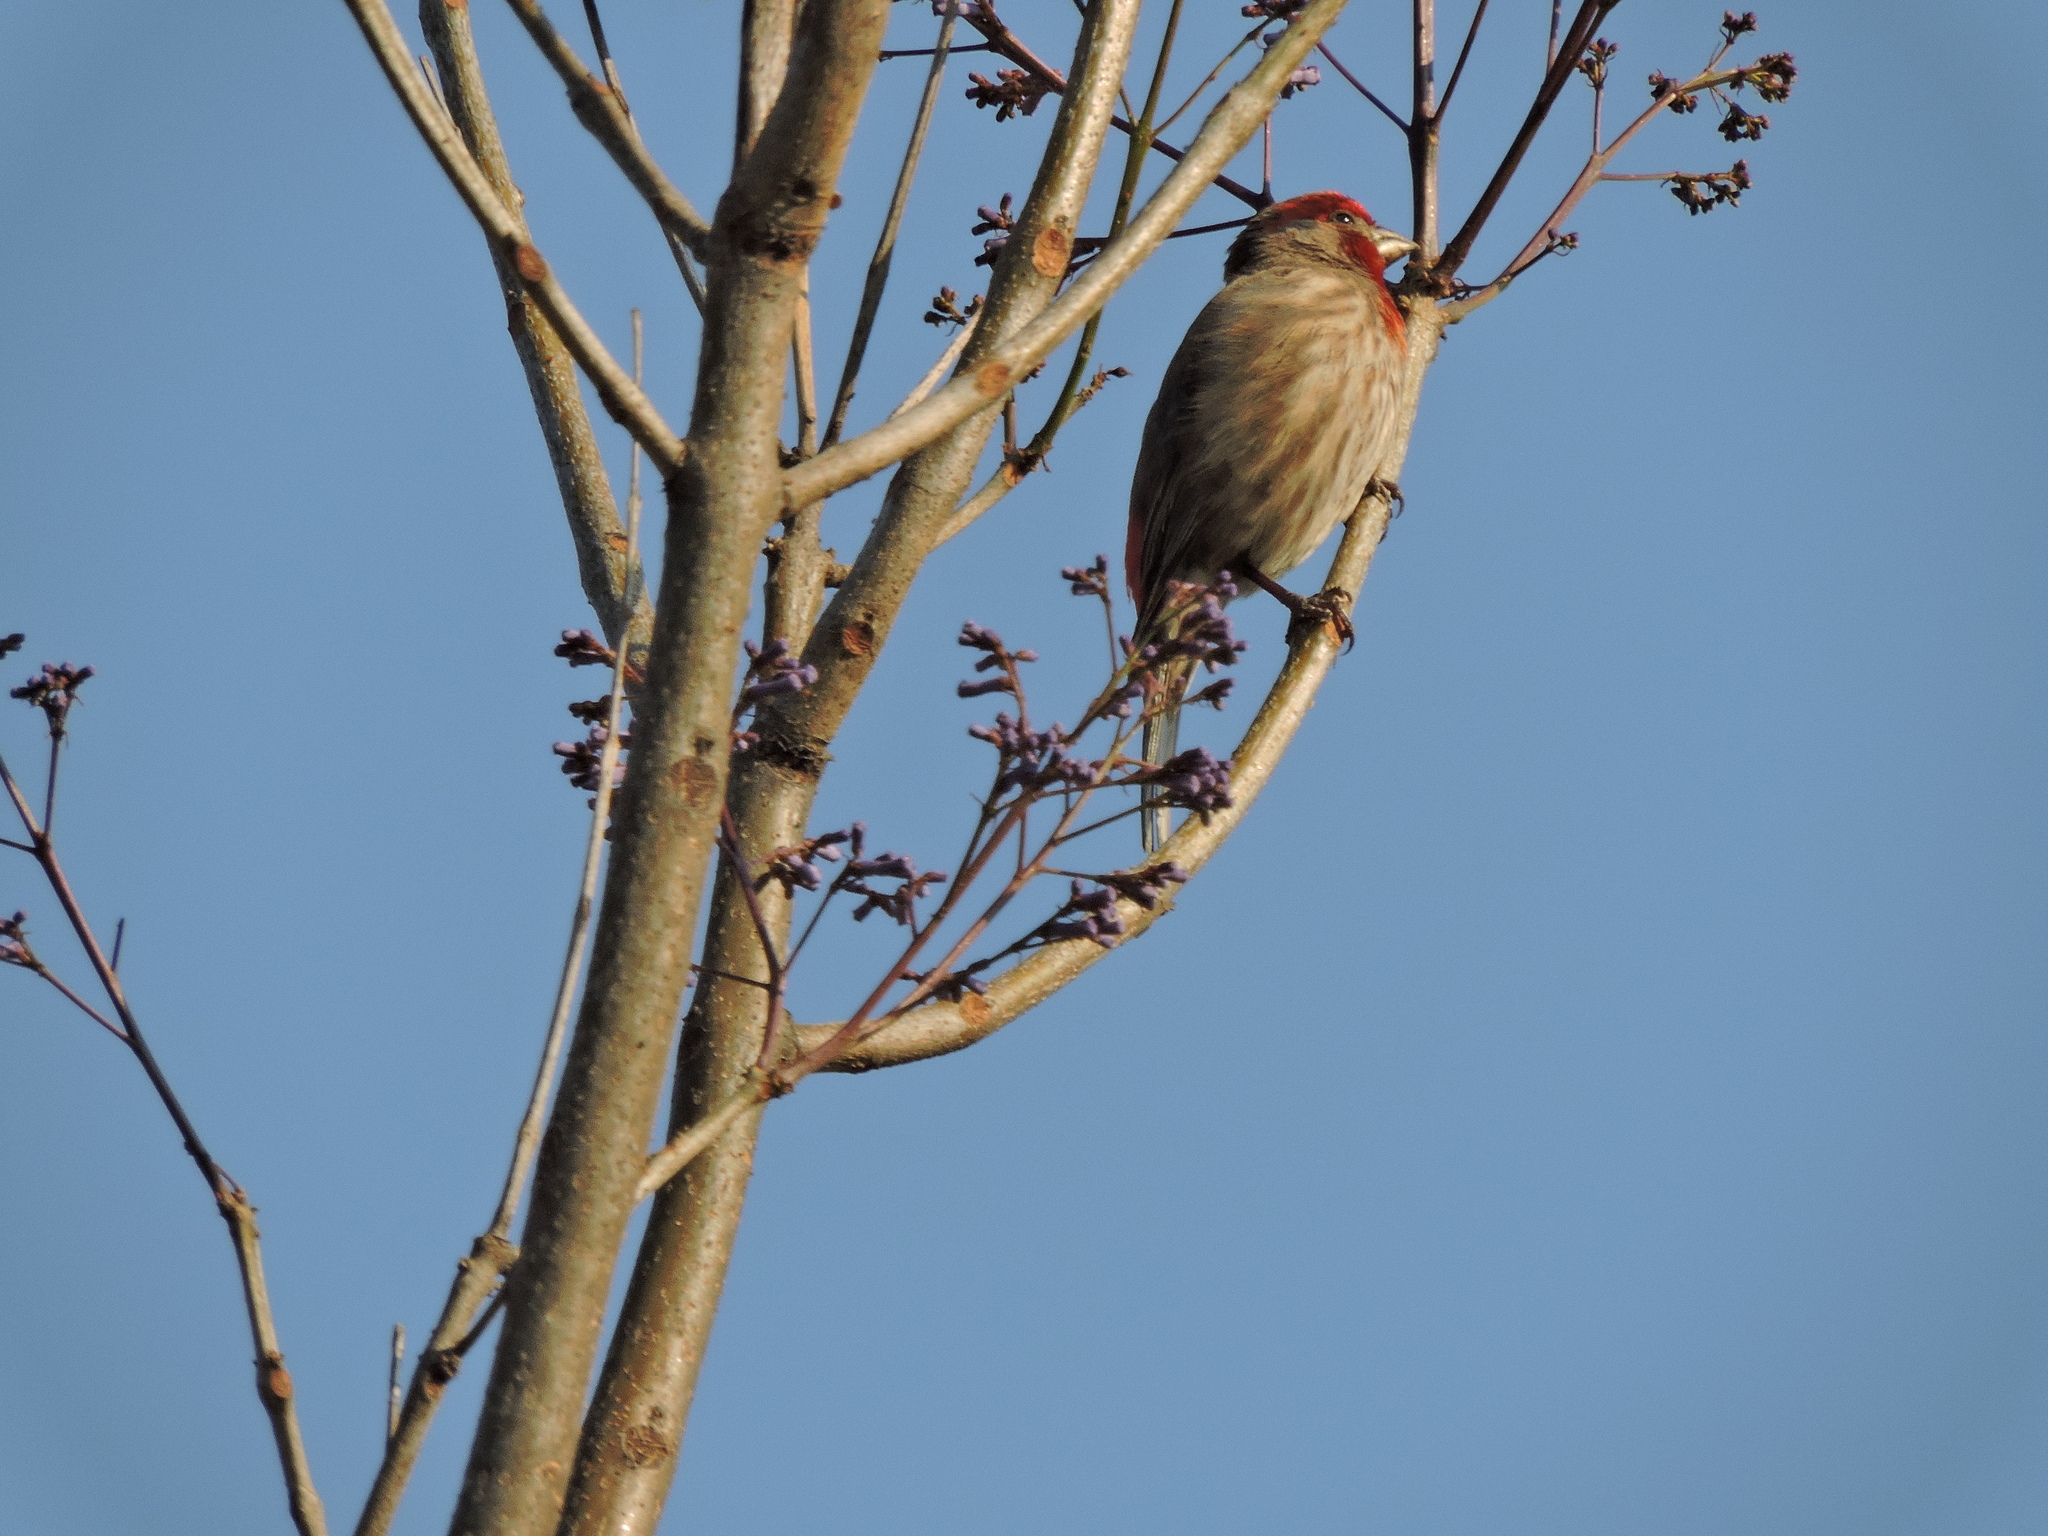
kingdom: Animalia
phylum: Chordata
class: Aves
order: Passeriformes
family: Fringillidae
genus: Haemorhous
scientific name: Haemorhous mexicanus
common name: House finch
